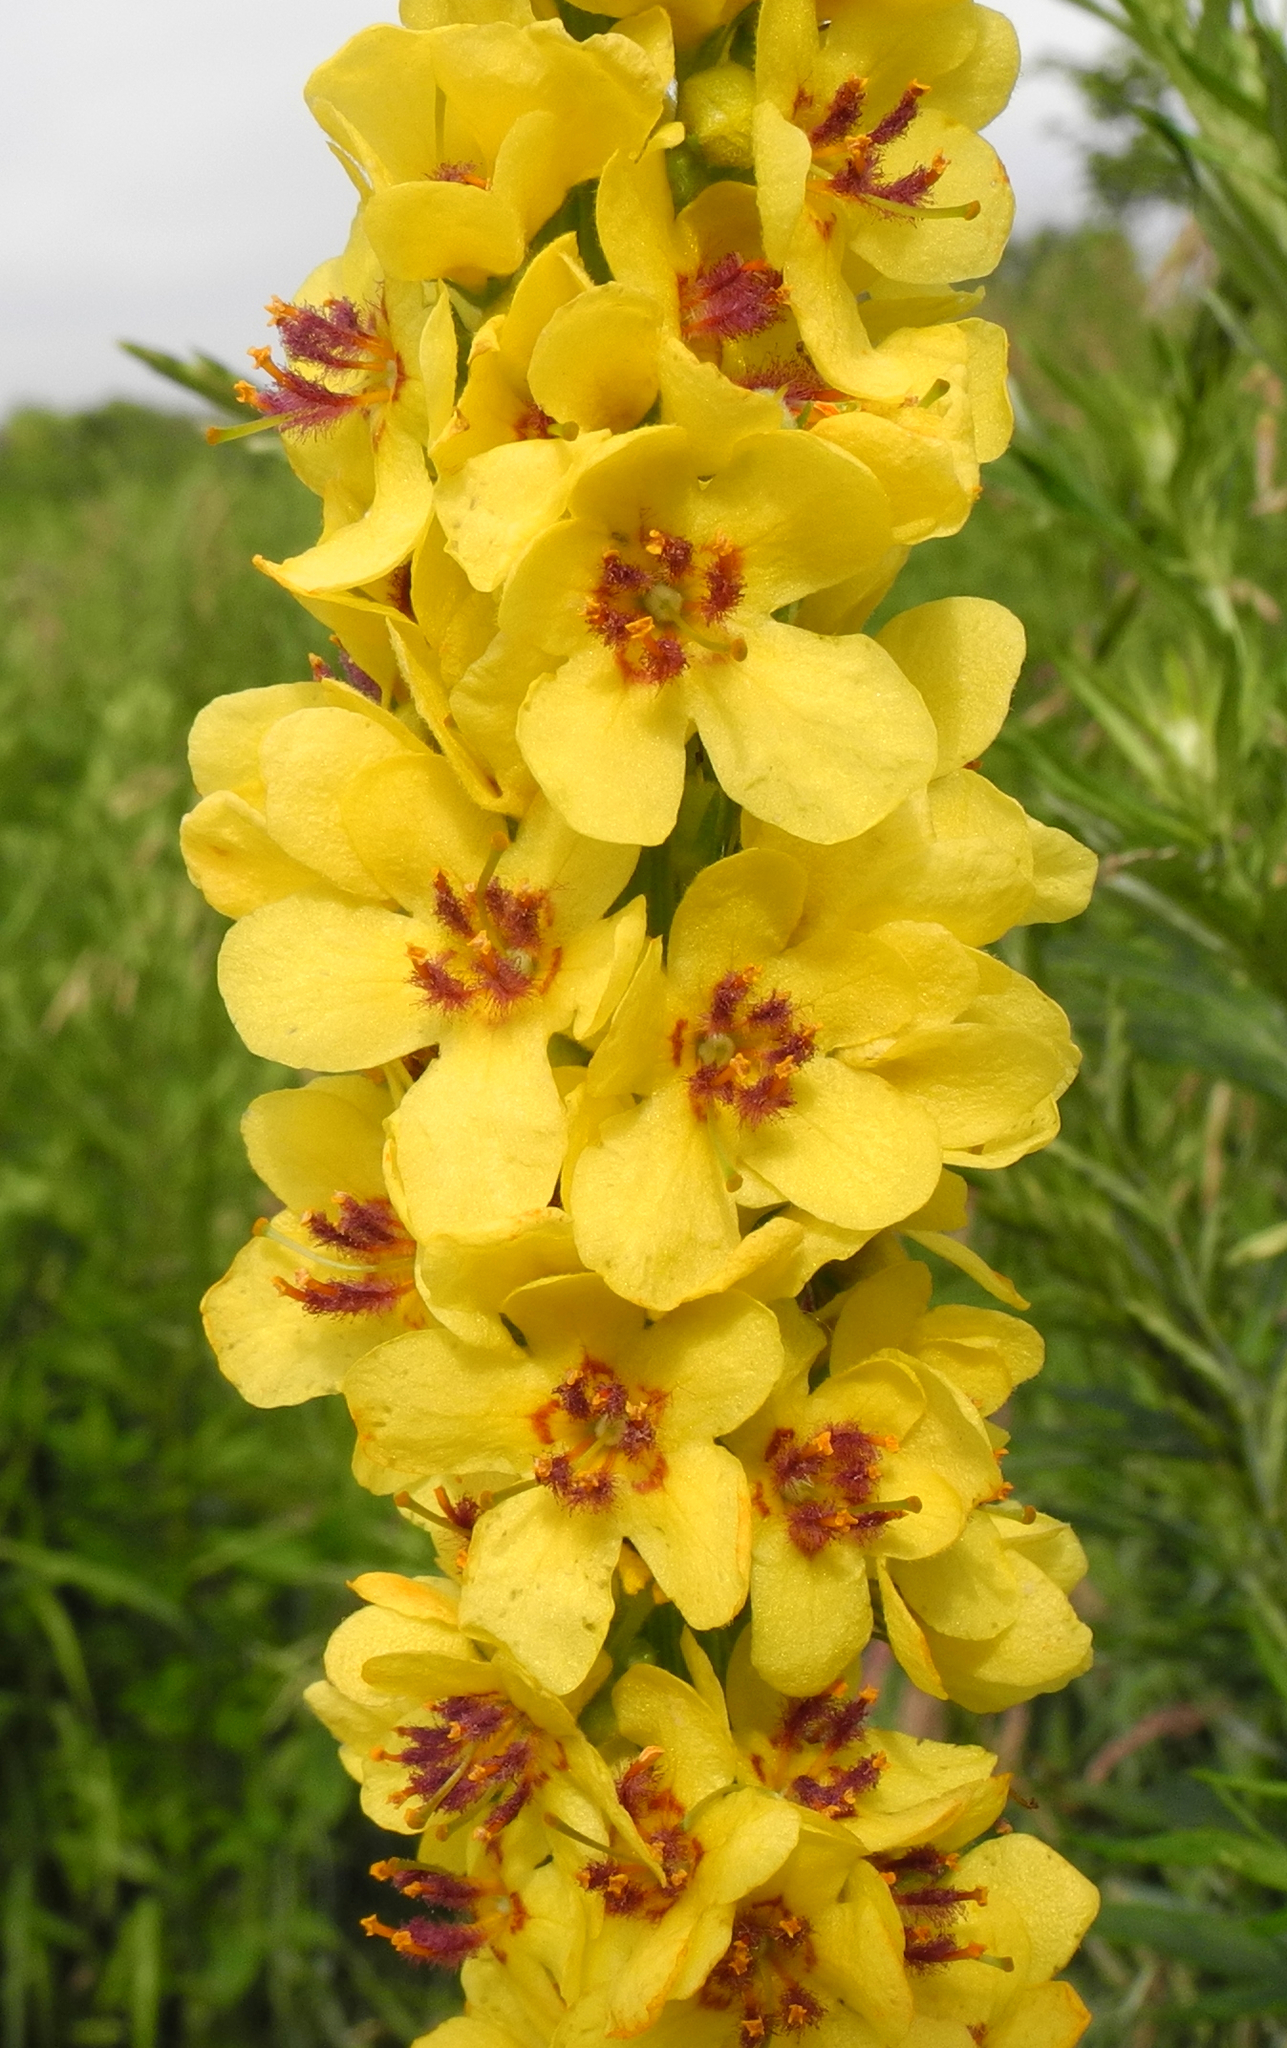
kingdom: Plantae
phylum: Tracheophyta
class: Magnoliopsida
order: Lamiales
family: Scrophulariaceae
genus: Verbascum
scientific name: Verbascum nigrum
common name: Dark mullein
